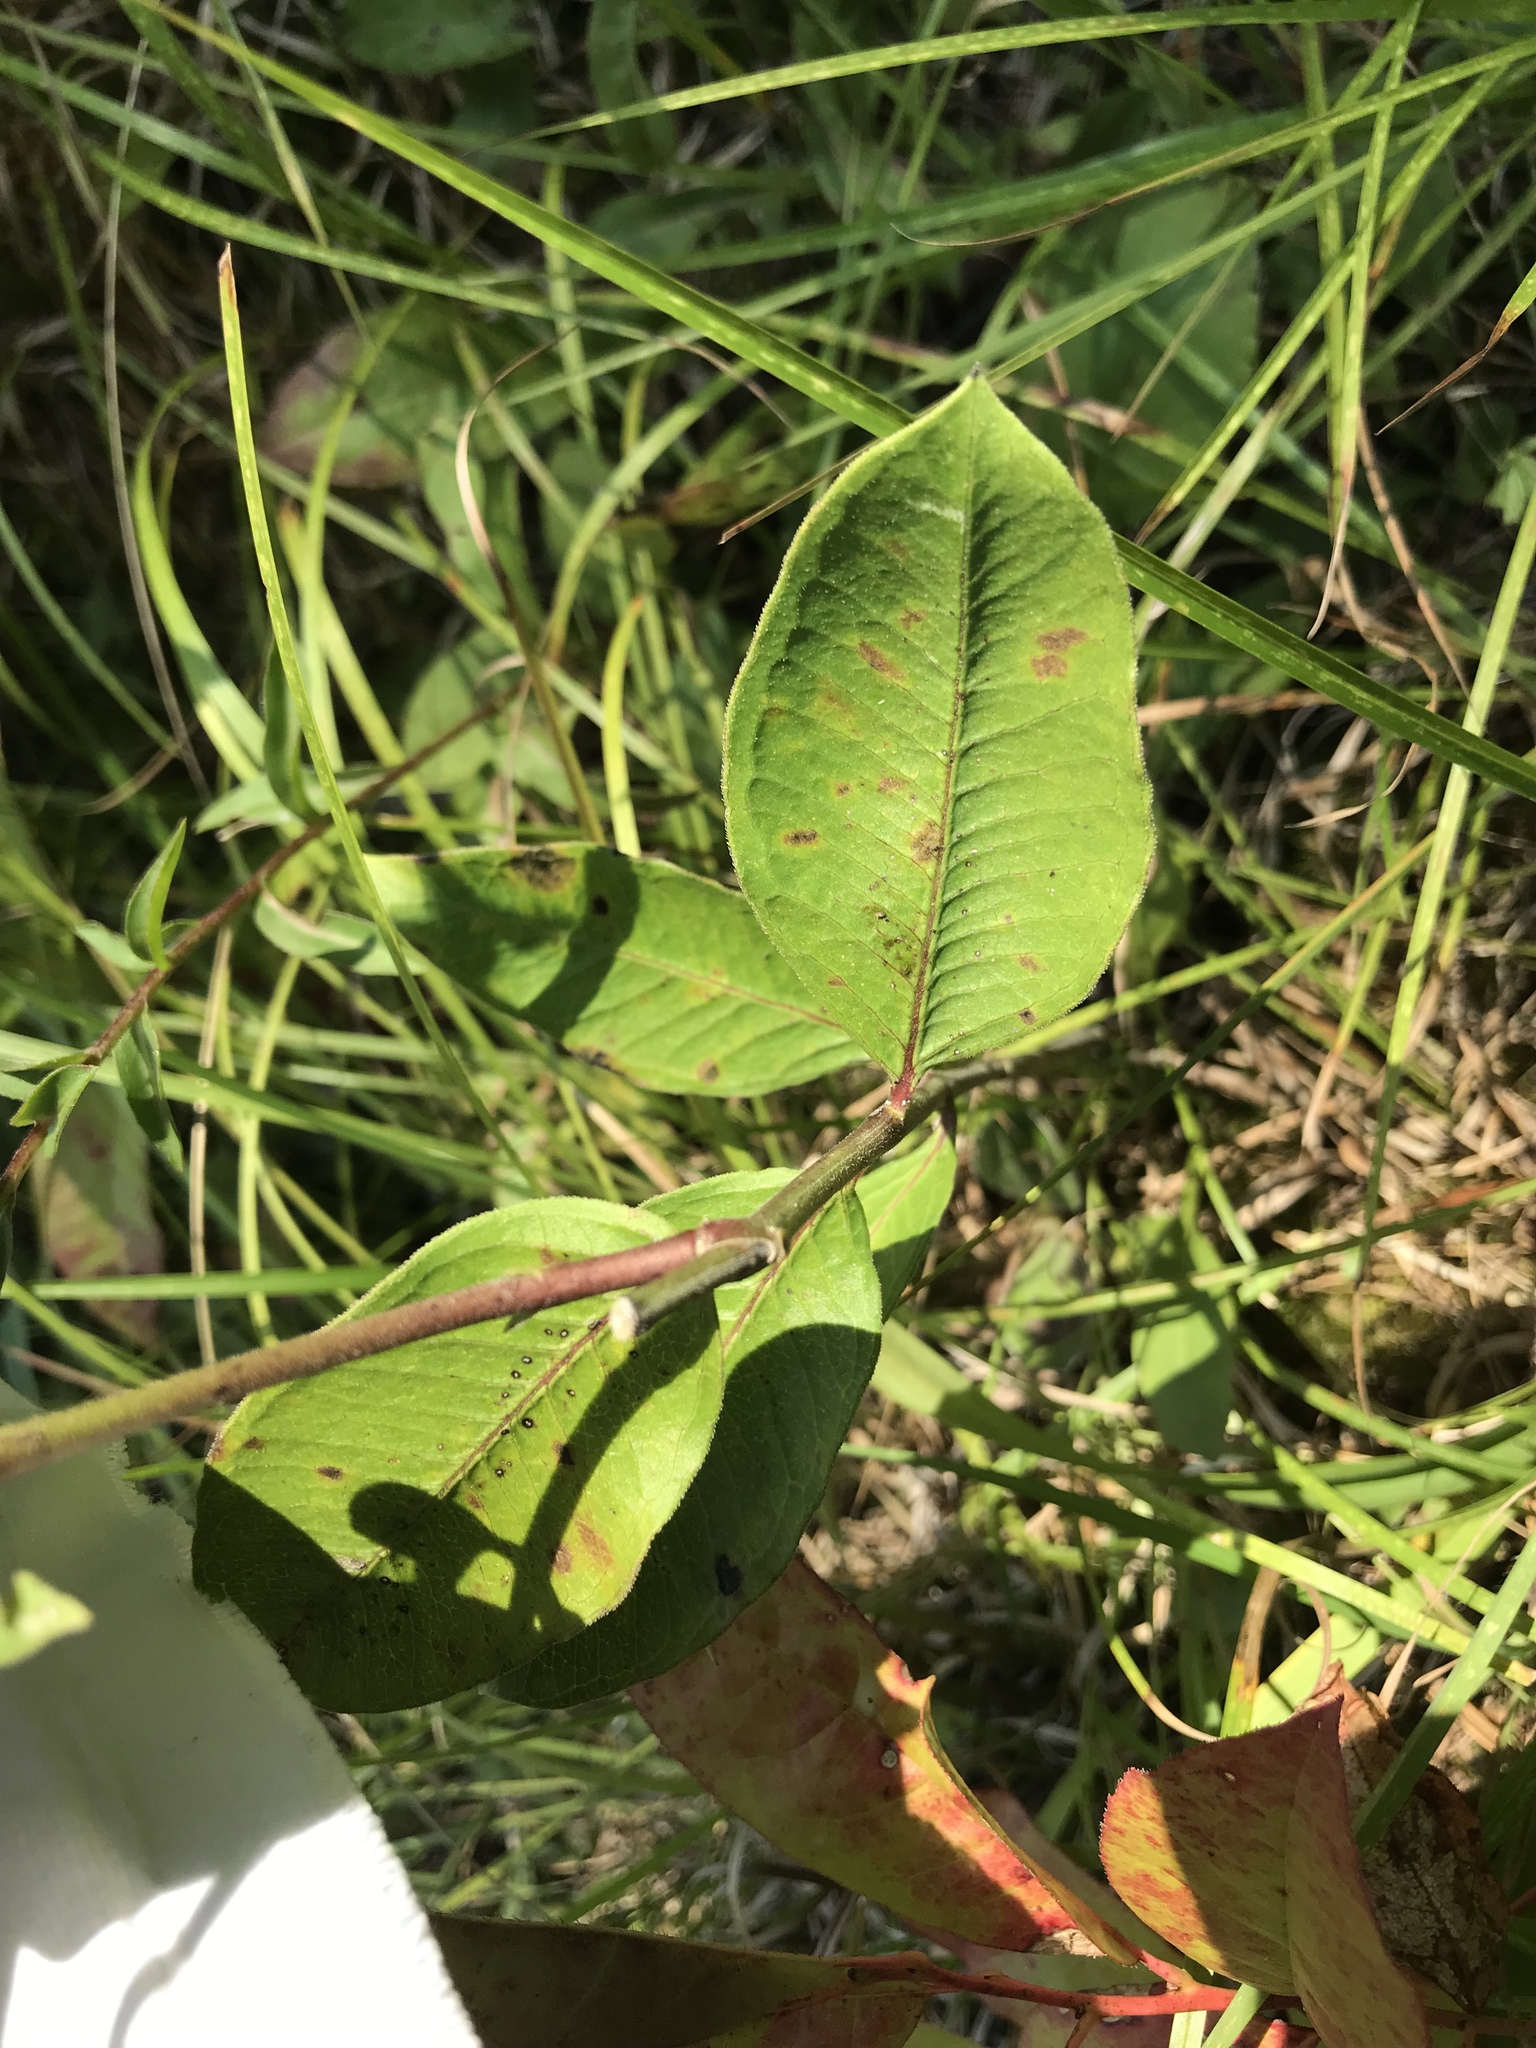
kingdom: Plantae
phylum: Tracheophyta
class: Magnoliopsida
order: Gentianales
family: Apocynaceae
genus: Asclepias
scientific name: Asclepias viridiflora
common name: Green comet milkweed
